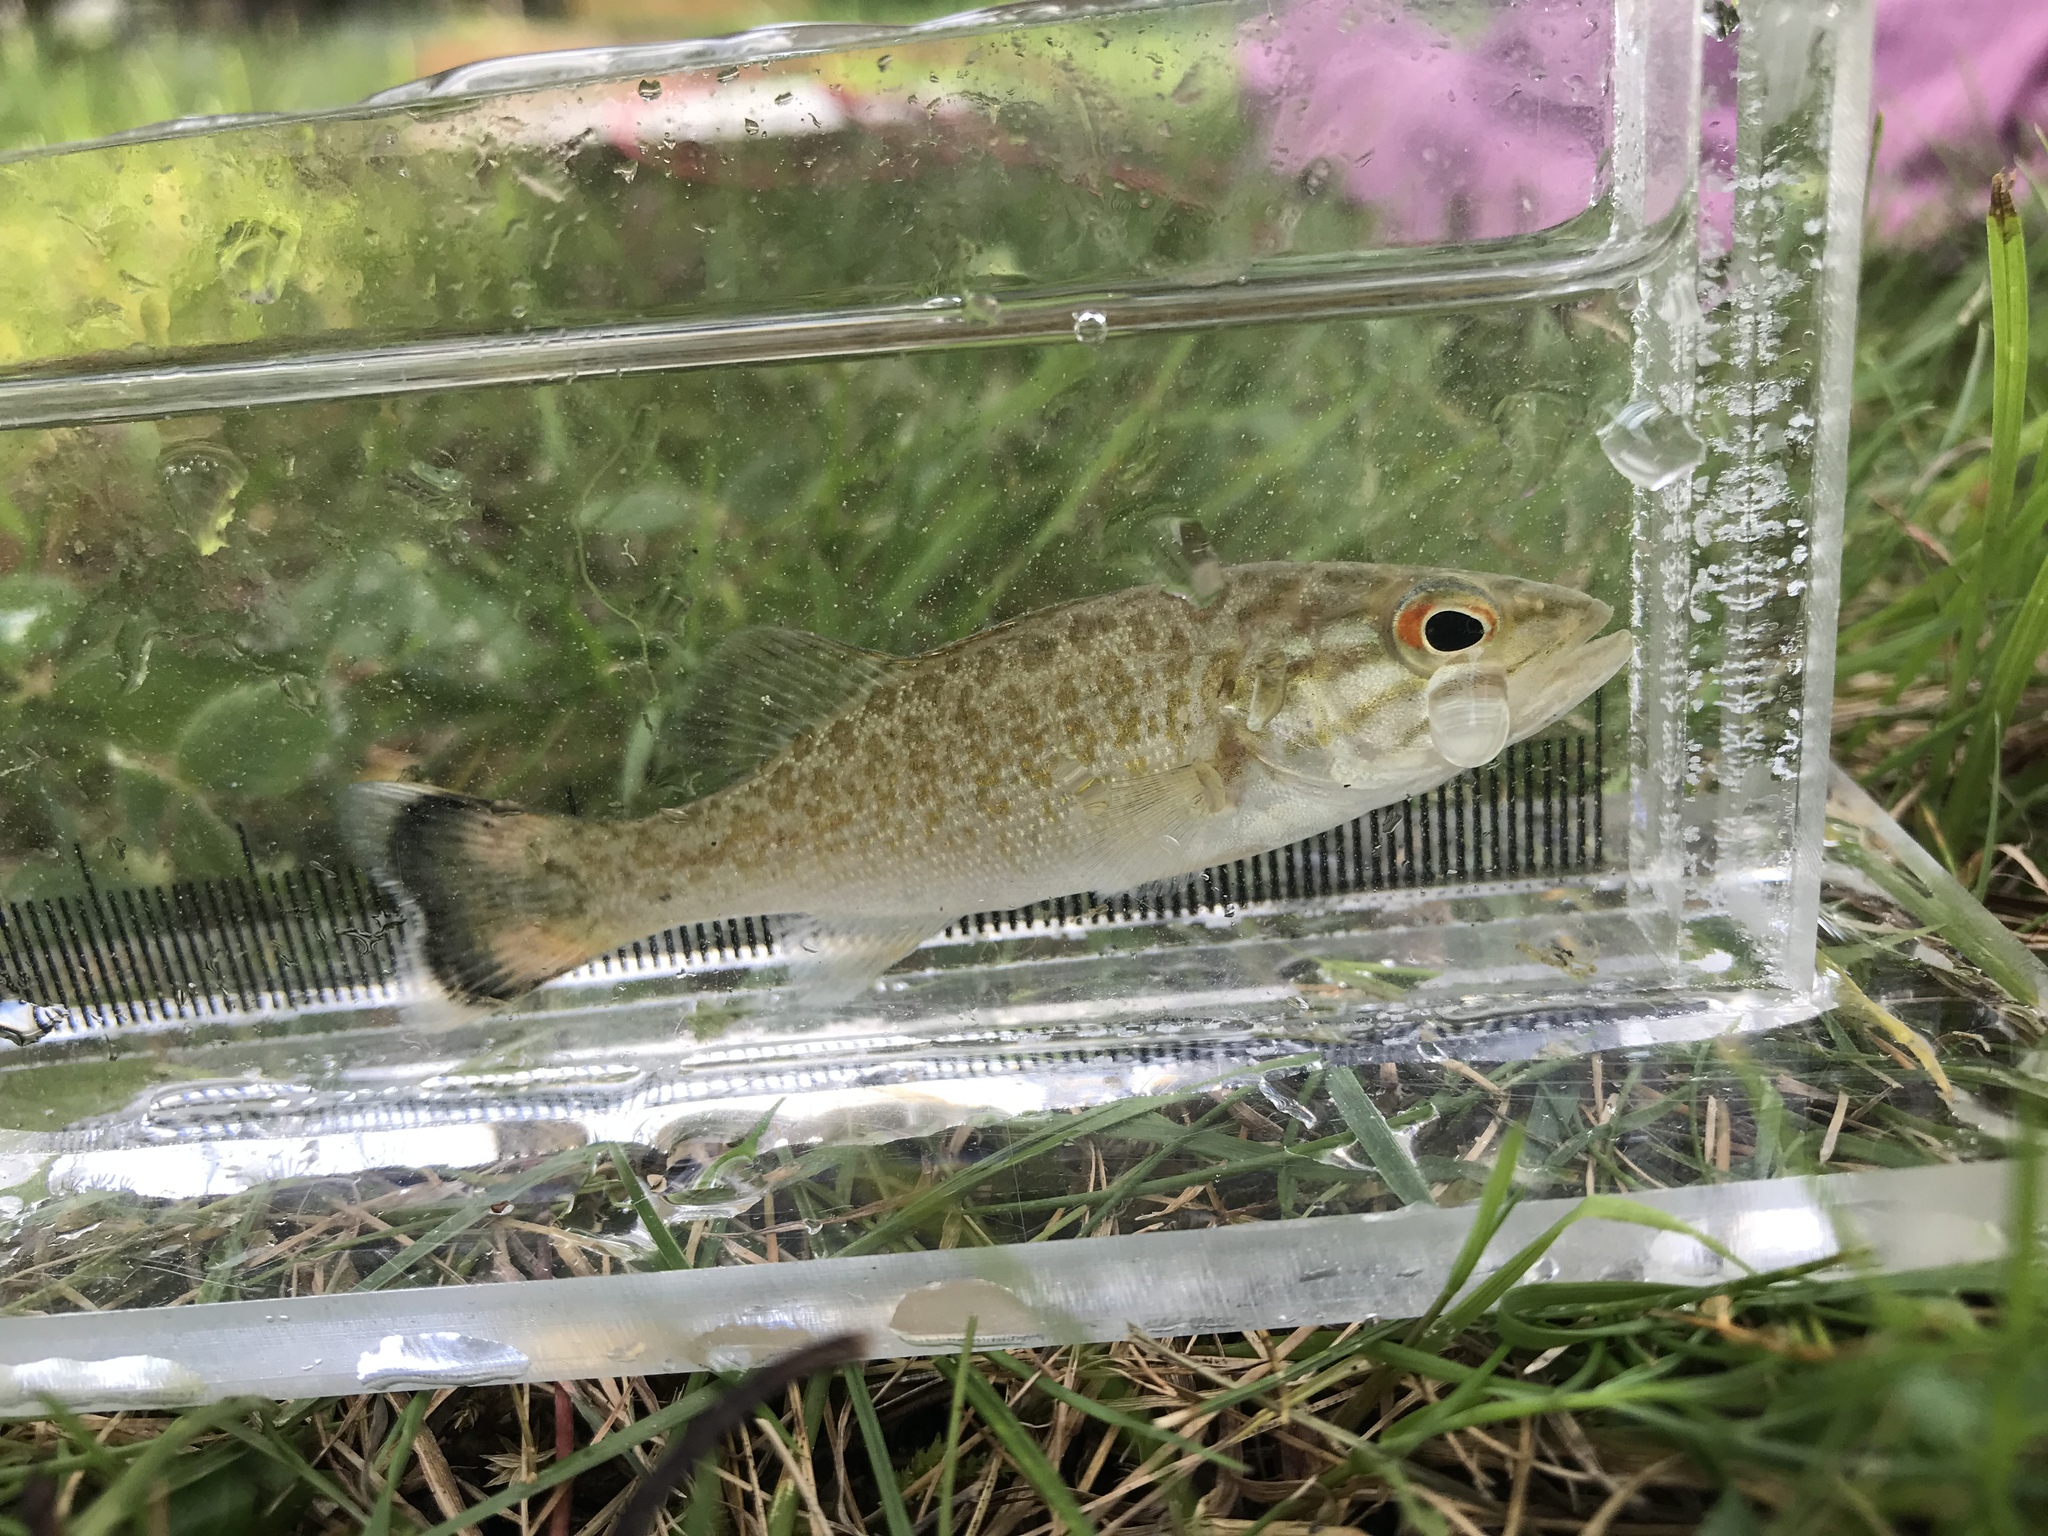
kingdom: Animalia
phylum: Chordata
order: Perciformes
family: Centrarchidae
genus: Micropterus
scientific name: Micropterus dolomieu
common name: Smallmouth bass
